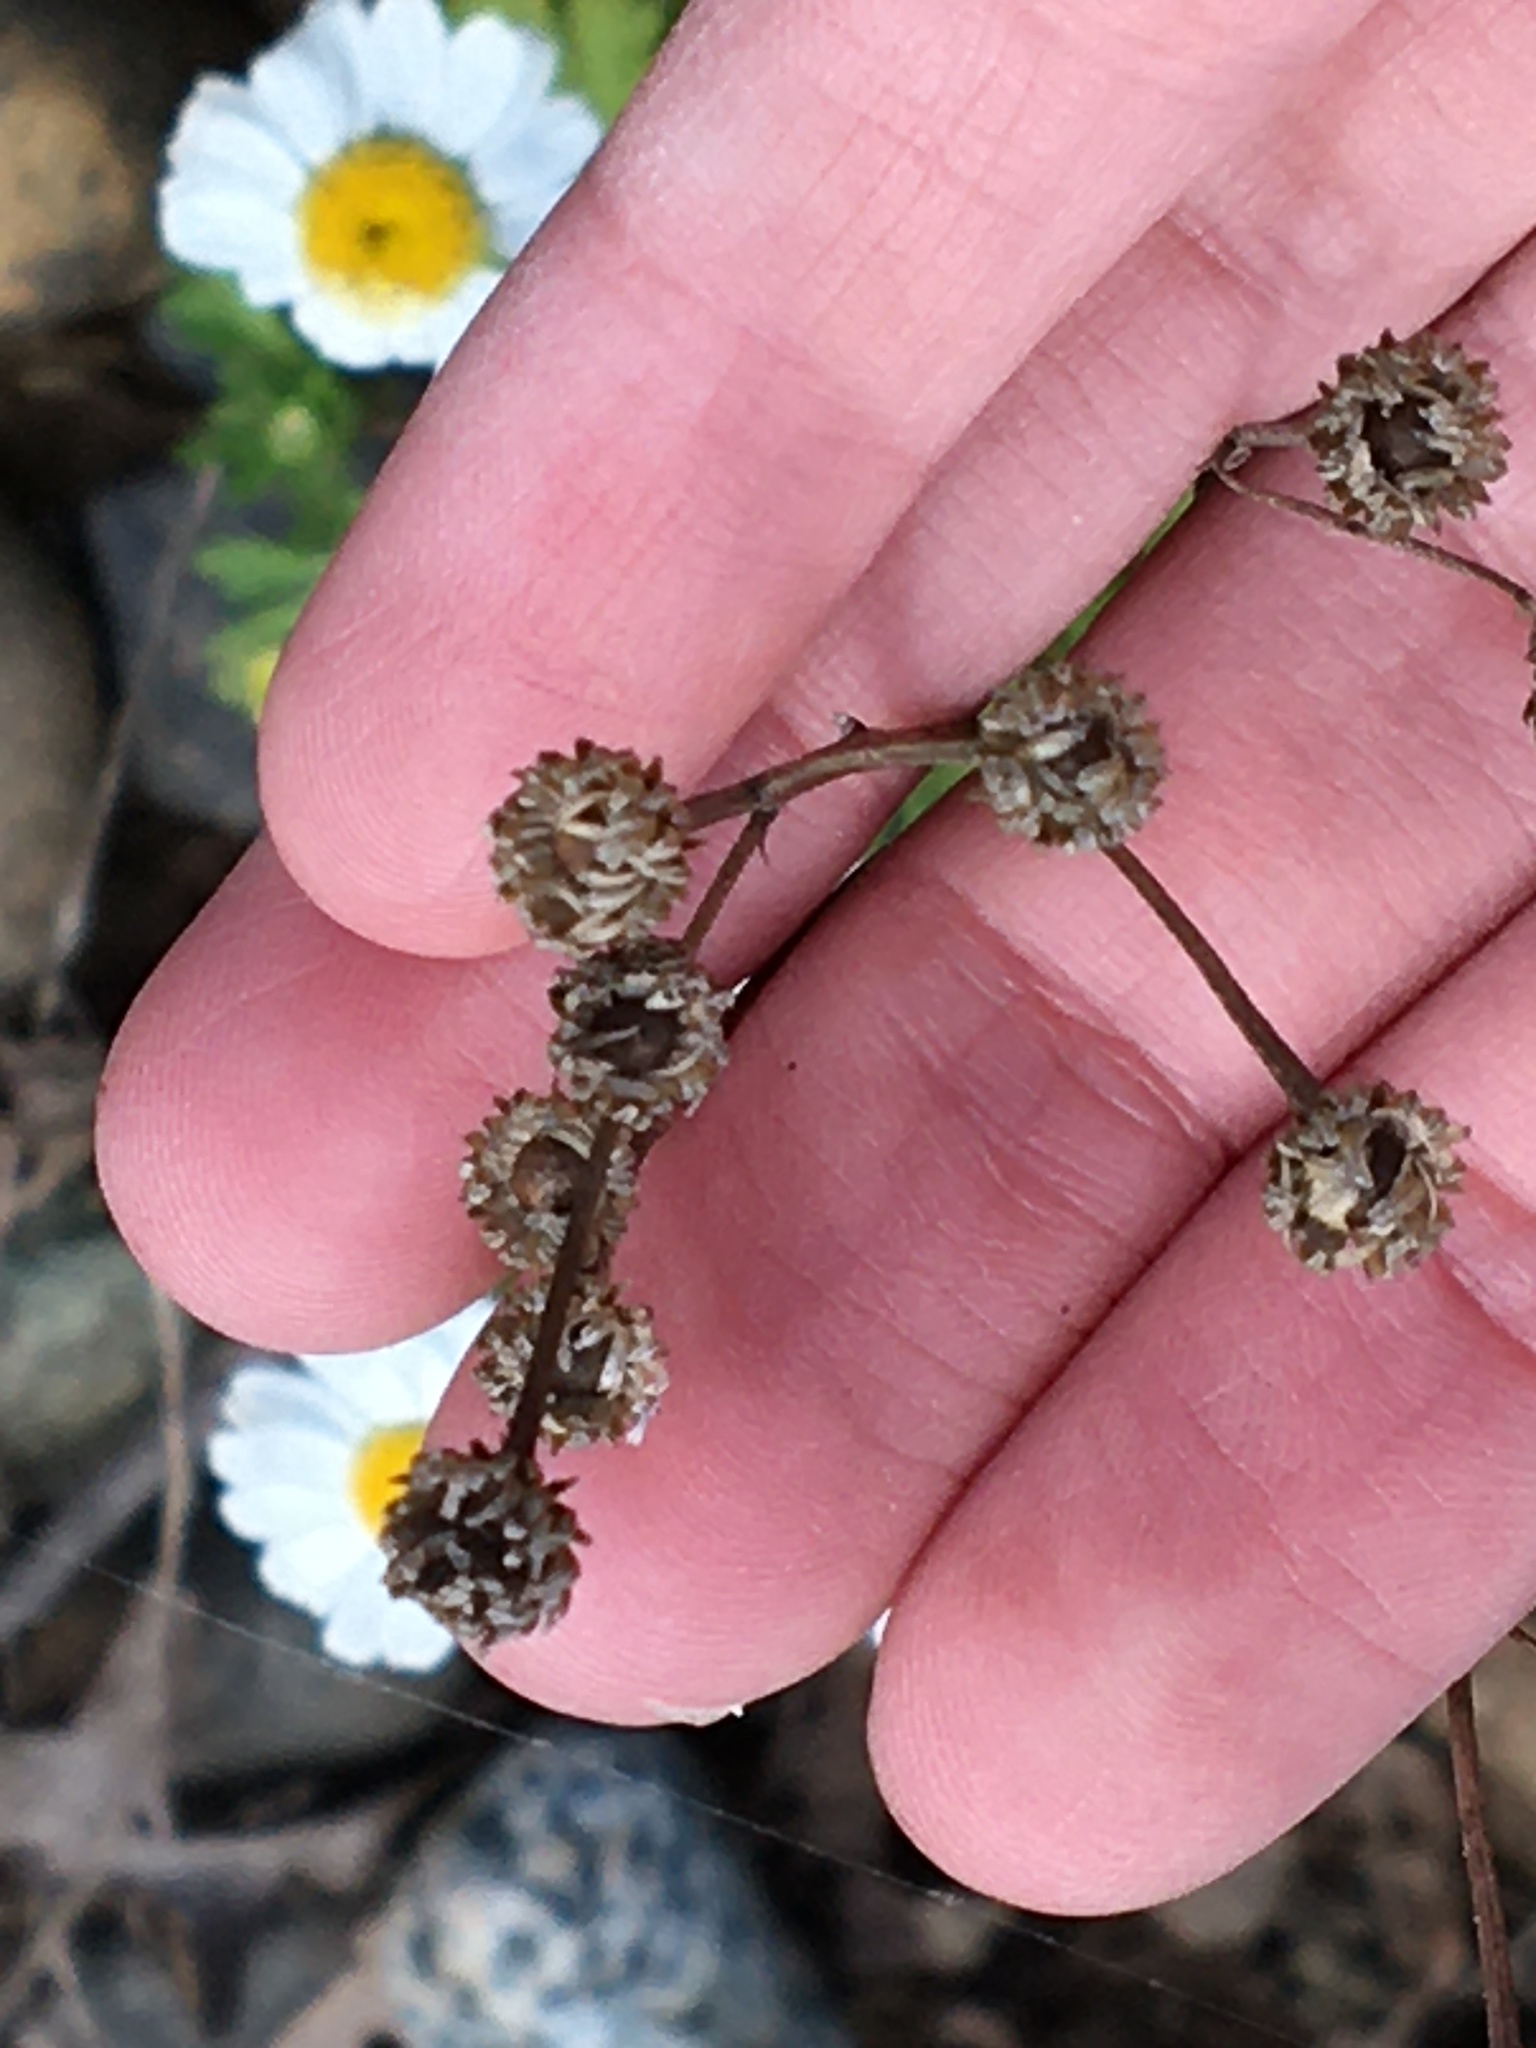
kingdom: Plantae
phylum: Tracheophyta
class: Magnoliopsida
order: Asterales
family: Asteraceae
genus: Tanacetum
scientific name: Tanacetum parthenium
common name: Feverfew
